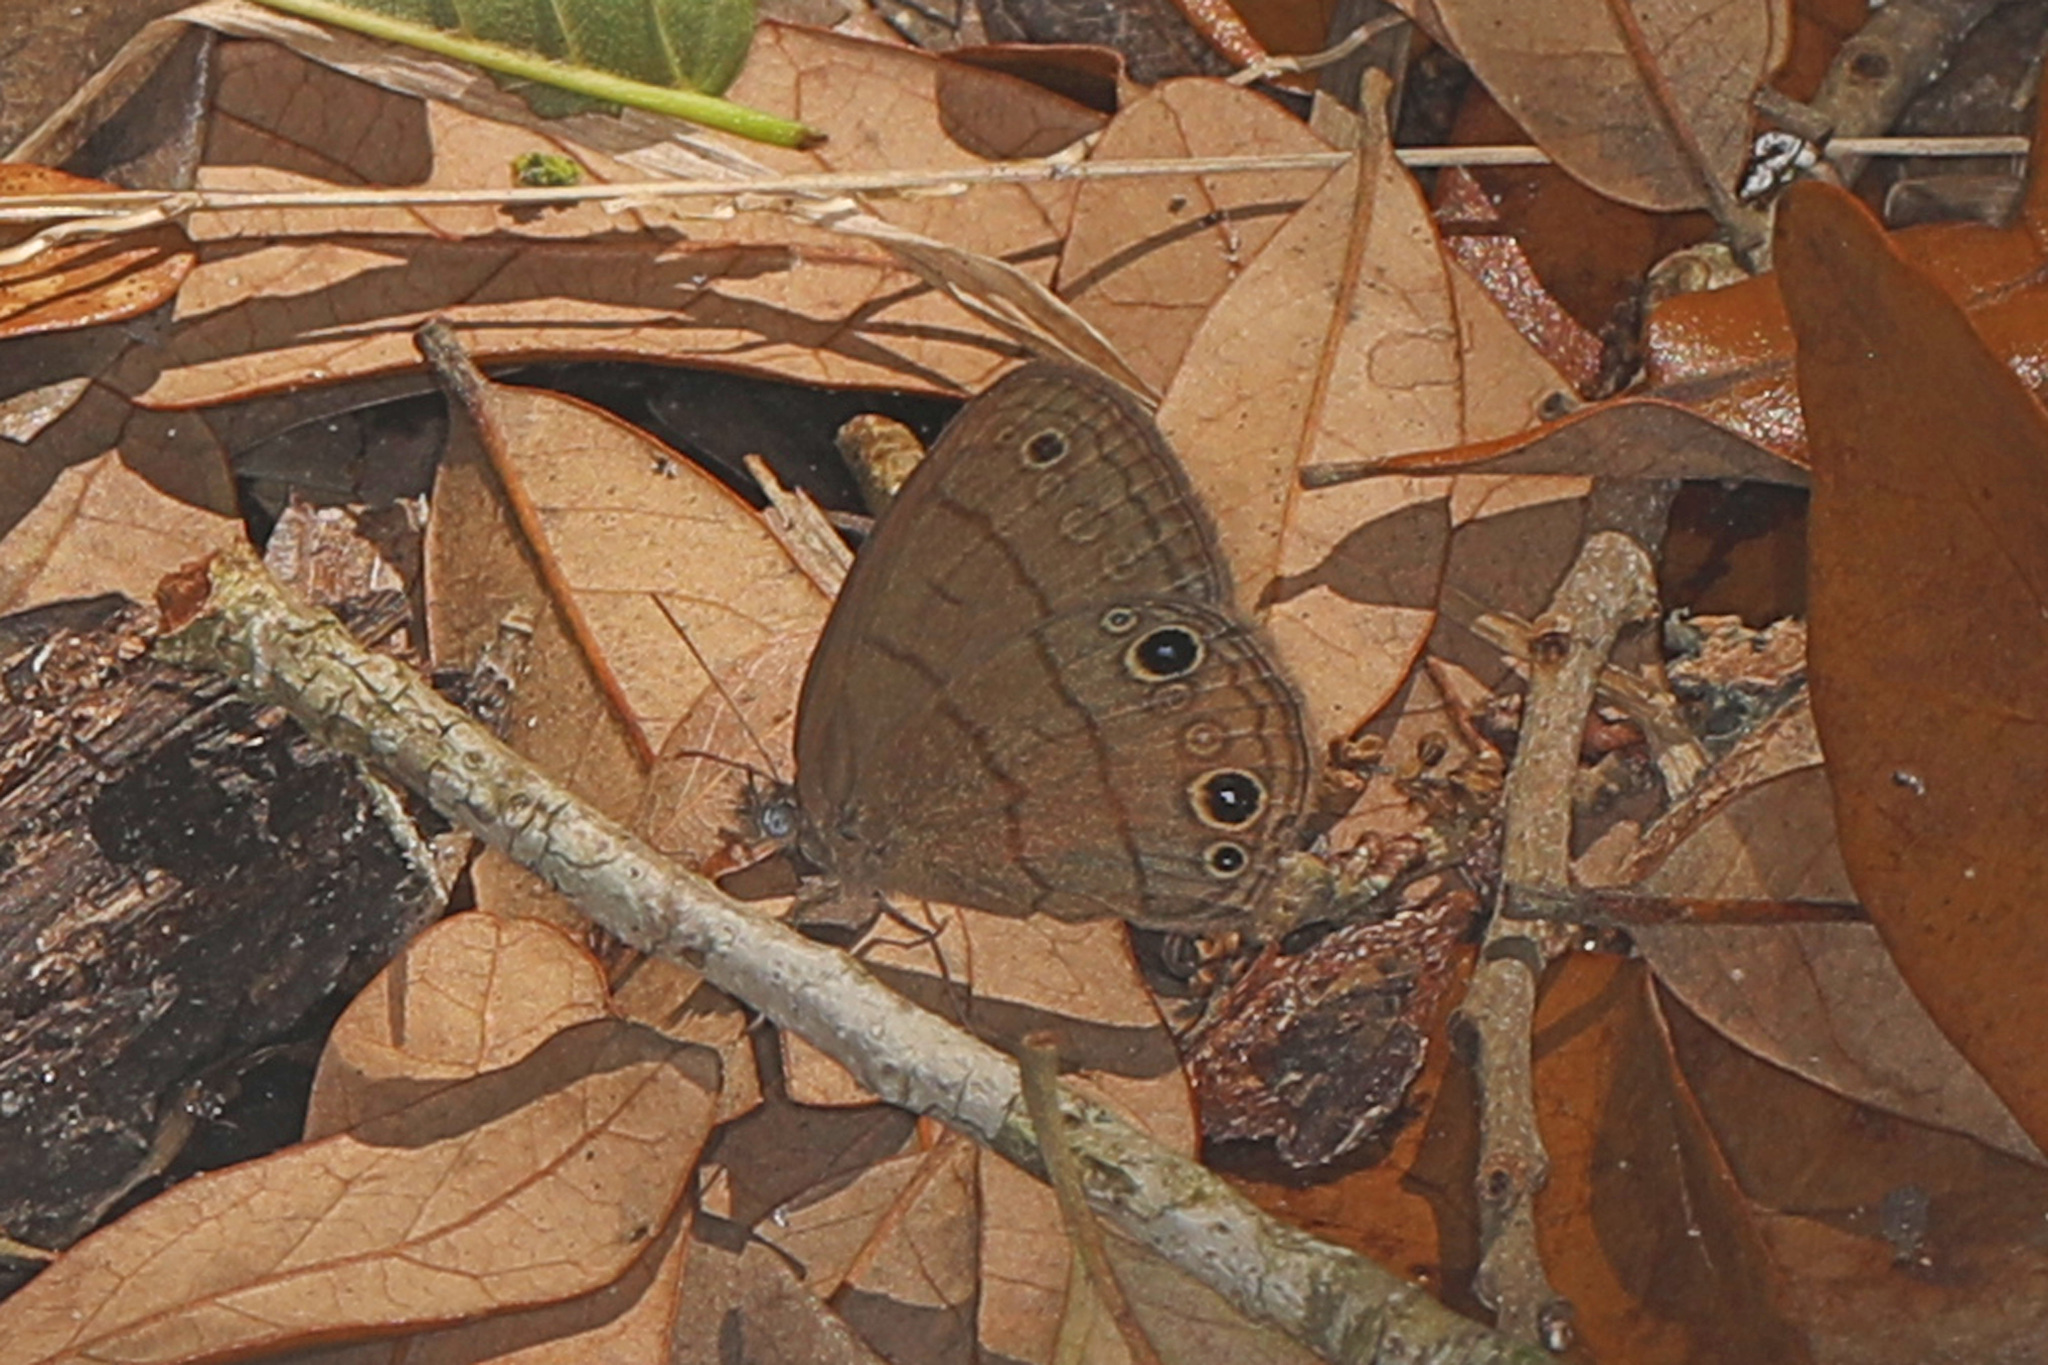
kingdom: Animalia
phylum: Arthropoda
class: Insecta
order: Lepidoptera
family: Nymphalidae
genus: Hermeuptychia
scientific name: Hermeuptychia hermes
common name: Hermes satyr
